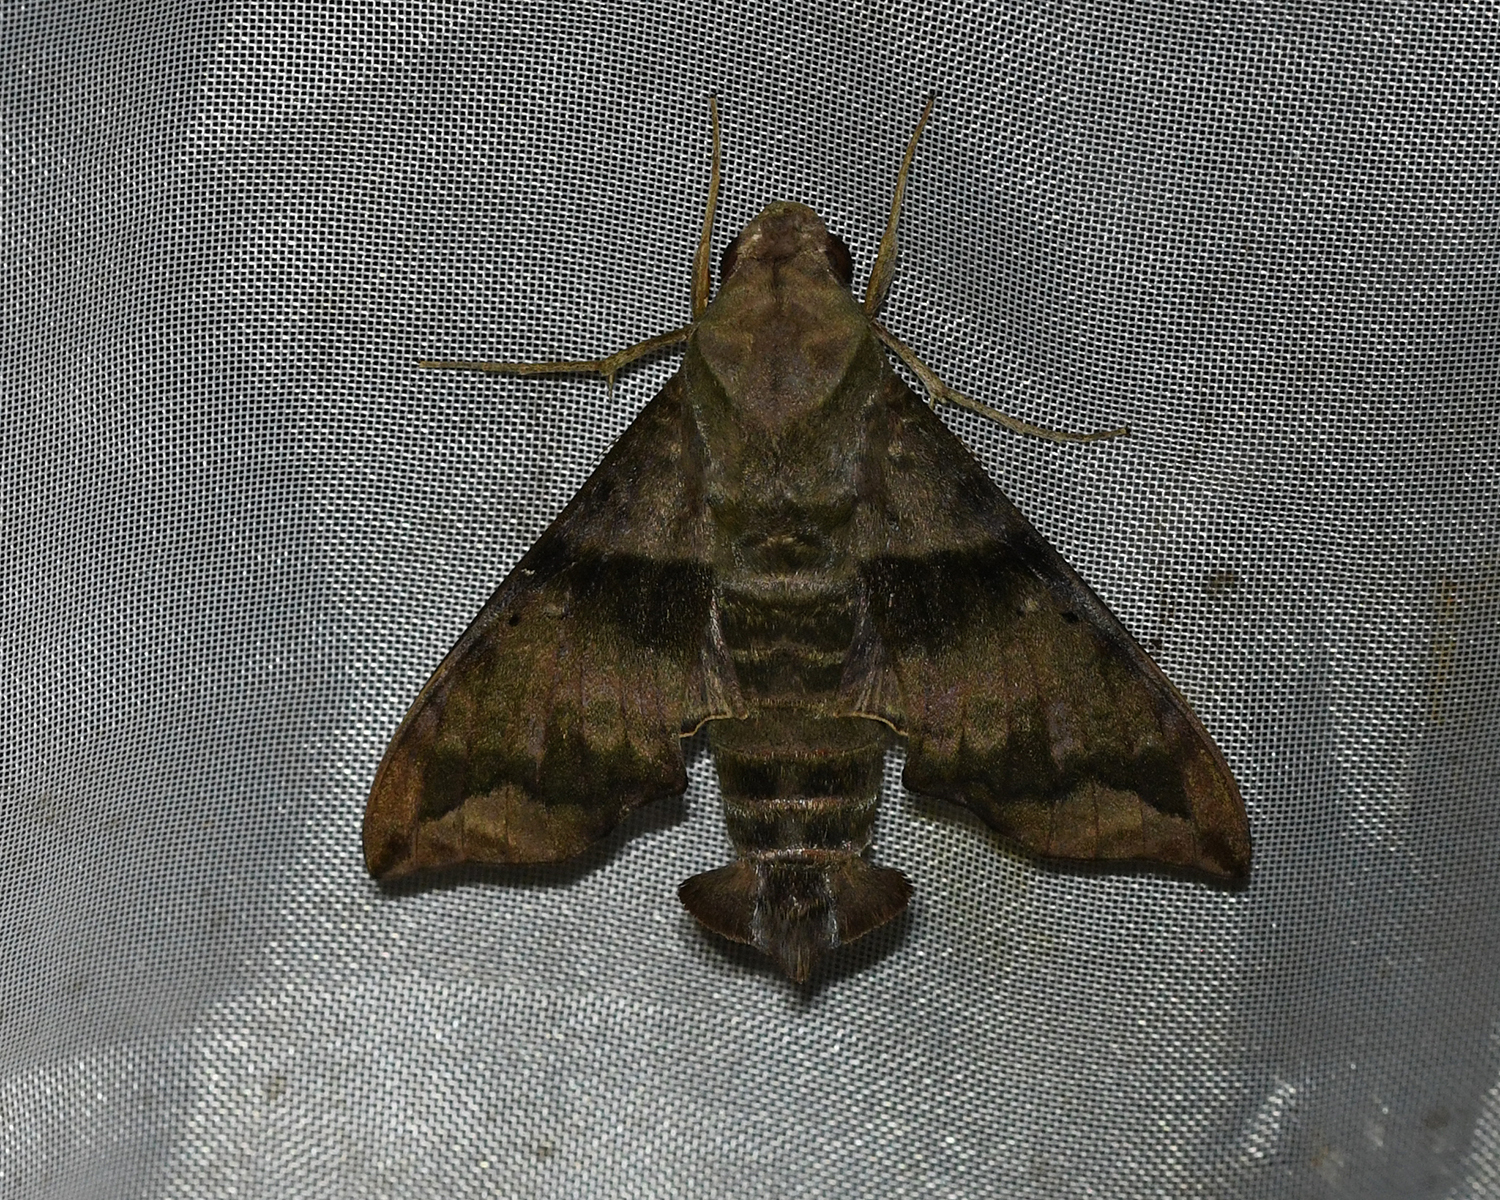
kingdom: Animalia
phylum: Arthropoda
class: Insecta
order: Lepidoptera
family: Sphingidae
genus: Perigonia
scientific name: Perigonia lusca
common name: Half-blind sphinx
